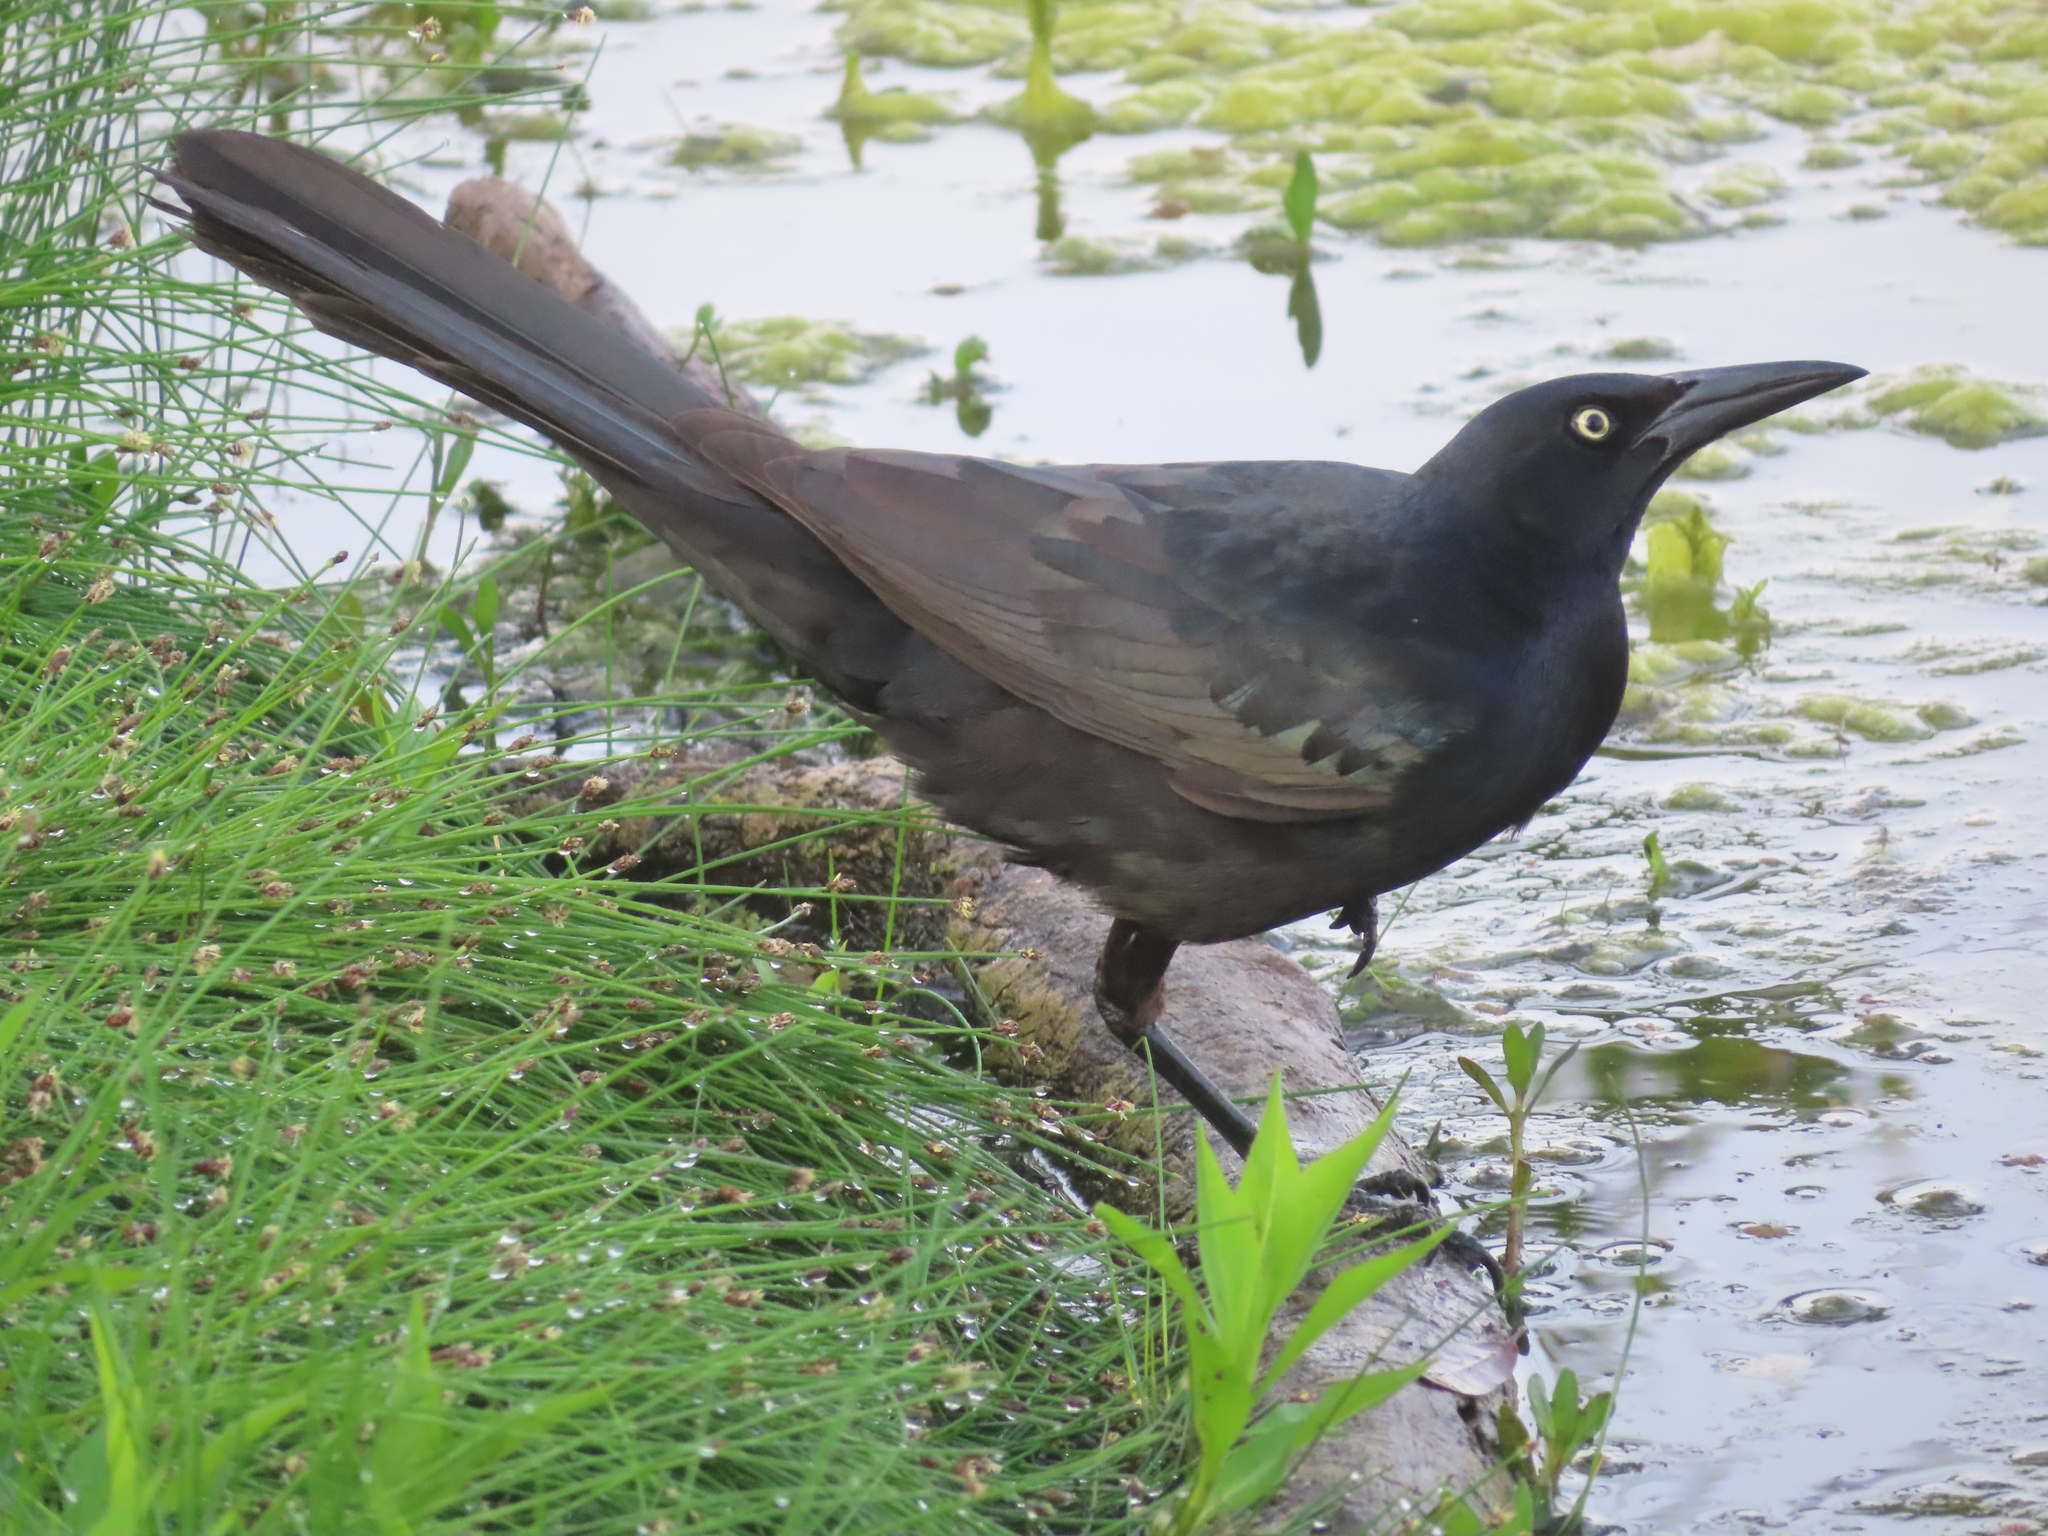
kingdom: Animalia
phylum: Chordata
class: Aves
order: Passeriformes
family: Icteridae
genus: Quiscalus
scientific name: Quiscalus mexicanus
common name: Great-tailed grackle
